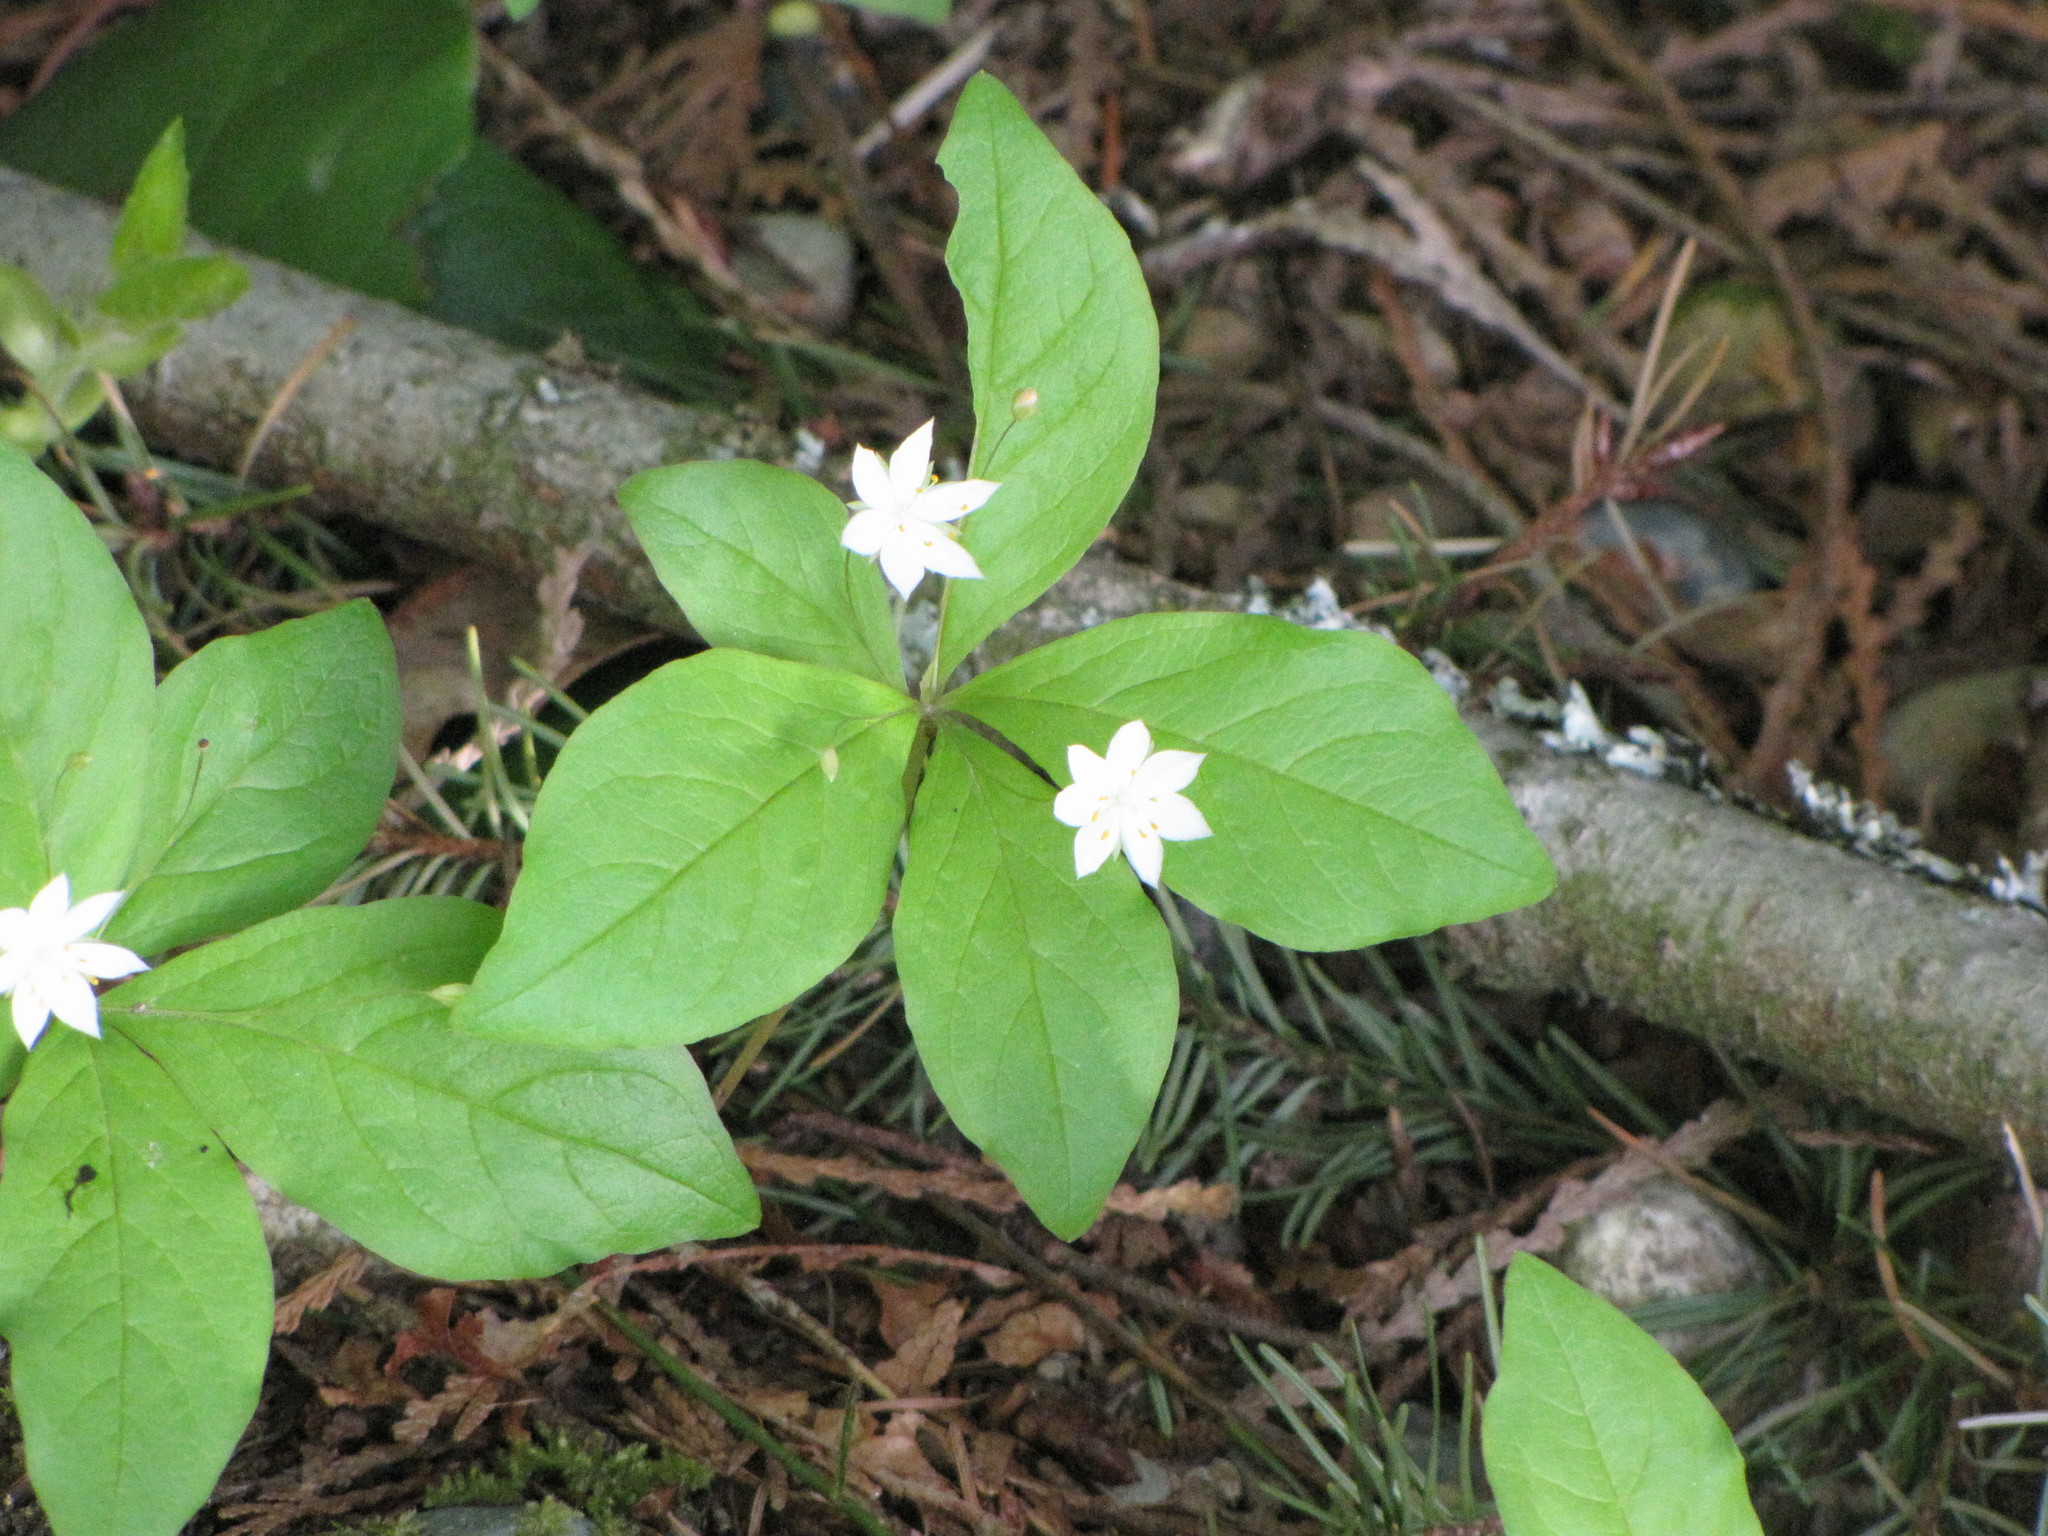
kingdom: Plantae
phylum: Tracheophyta
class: Magnoliopsida
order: Ericales
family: Primulaceae
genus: Lysimachia
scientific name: Lysimachia latifolia
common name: Pacific starflower
